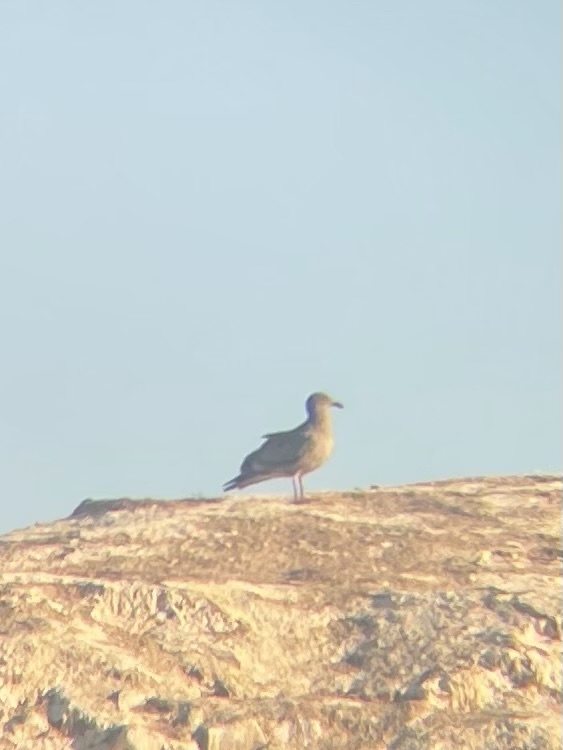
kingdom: Animalia
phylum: Chordata
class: Aves
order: Charadriiformes
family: Laridae
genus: Larus
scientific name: Larus occidentalis
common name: Western gull
